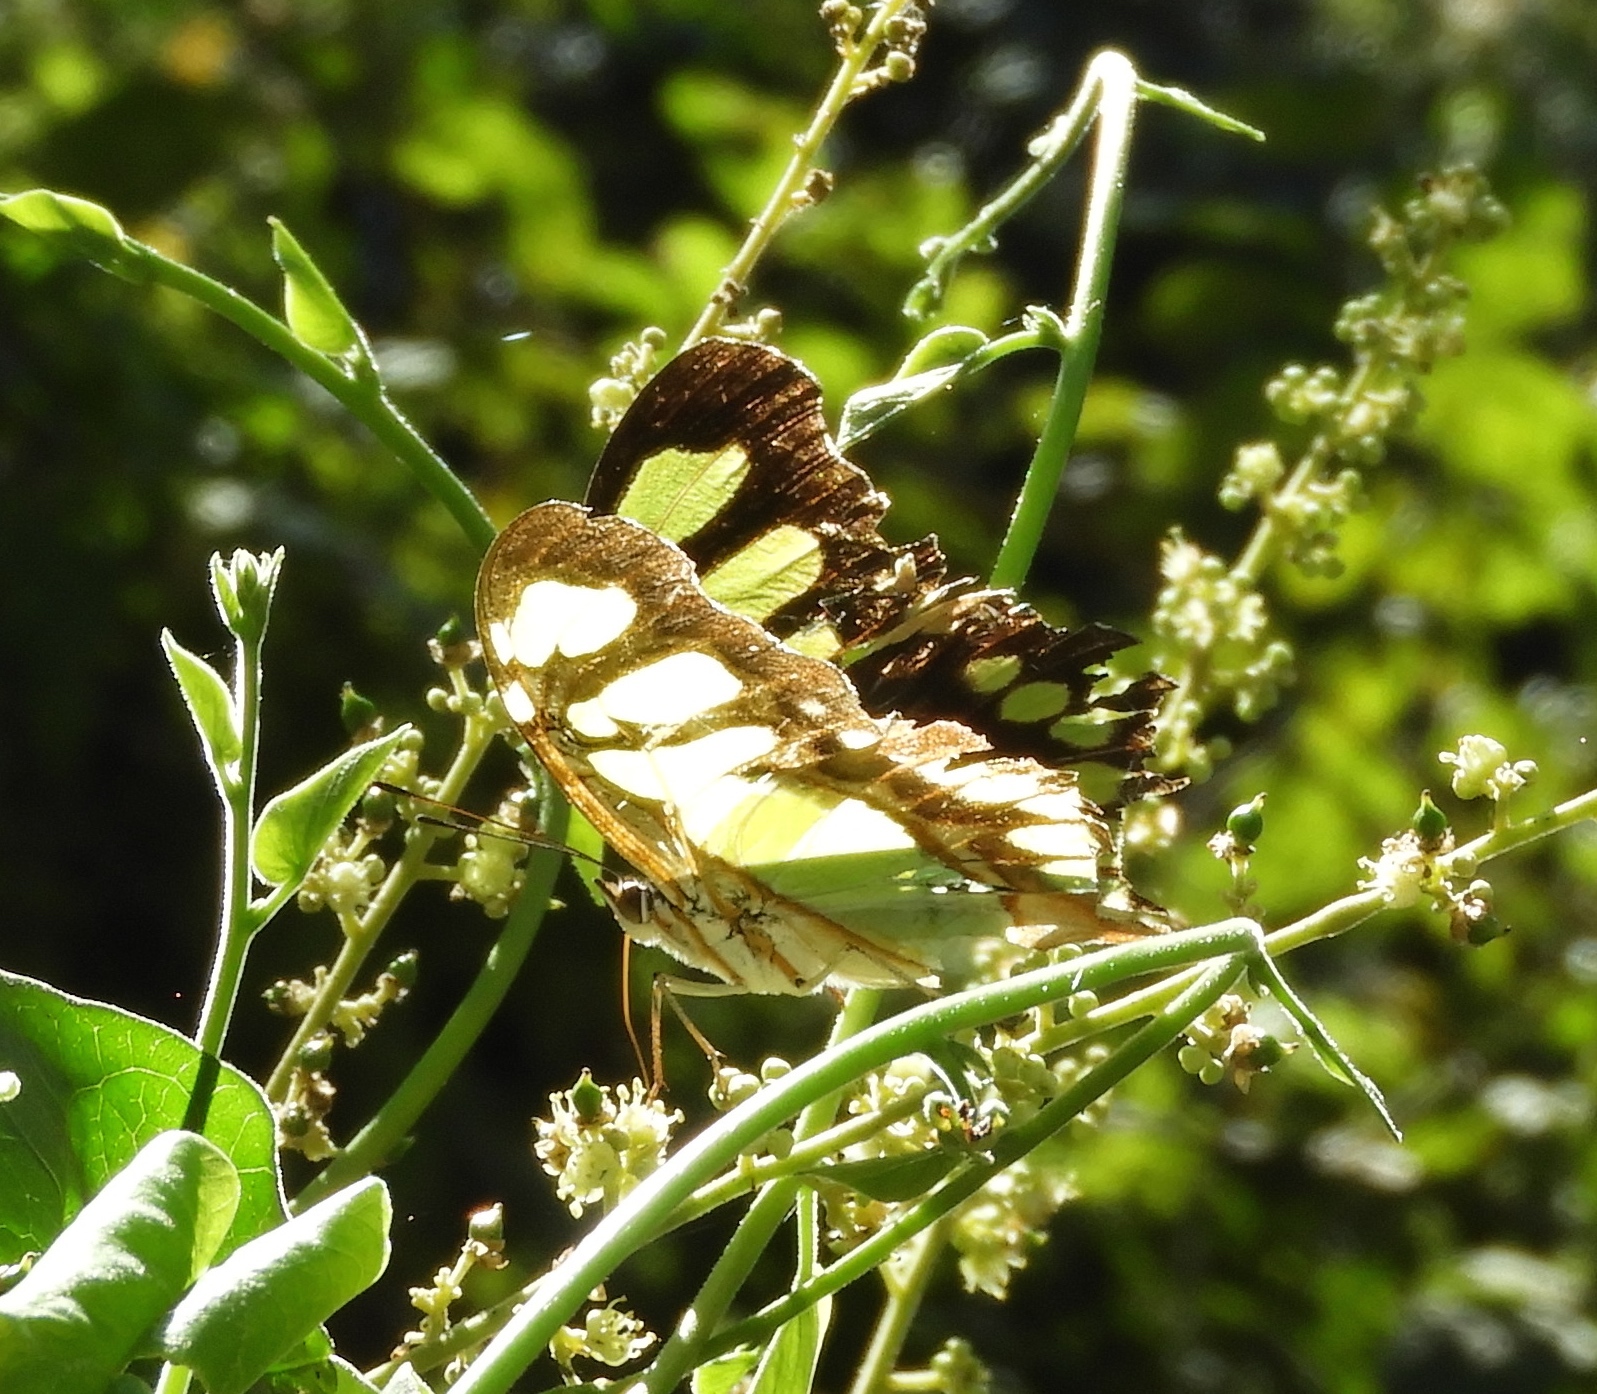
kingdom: Animalia
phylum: Arthropoda
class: Insecta
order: Lepidoptera
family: Nymphalidae
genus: Siproeta
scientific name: Siproeta stelenes
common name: Malachite
